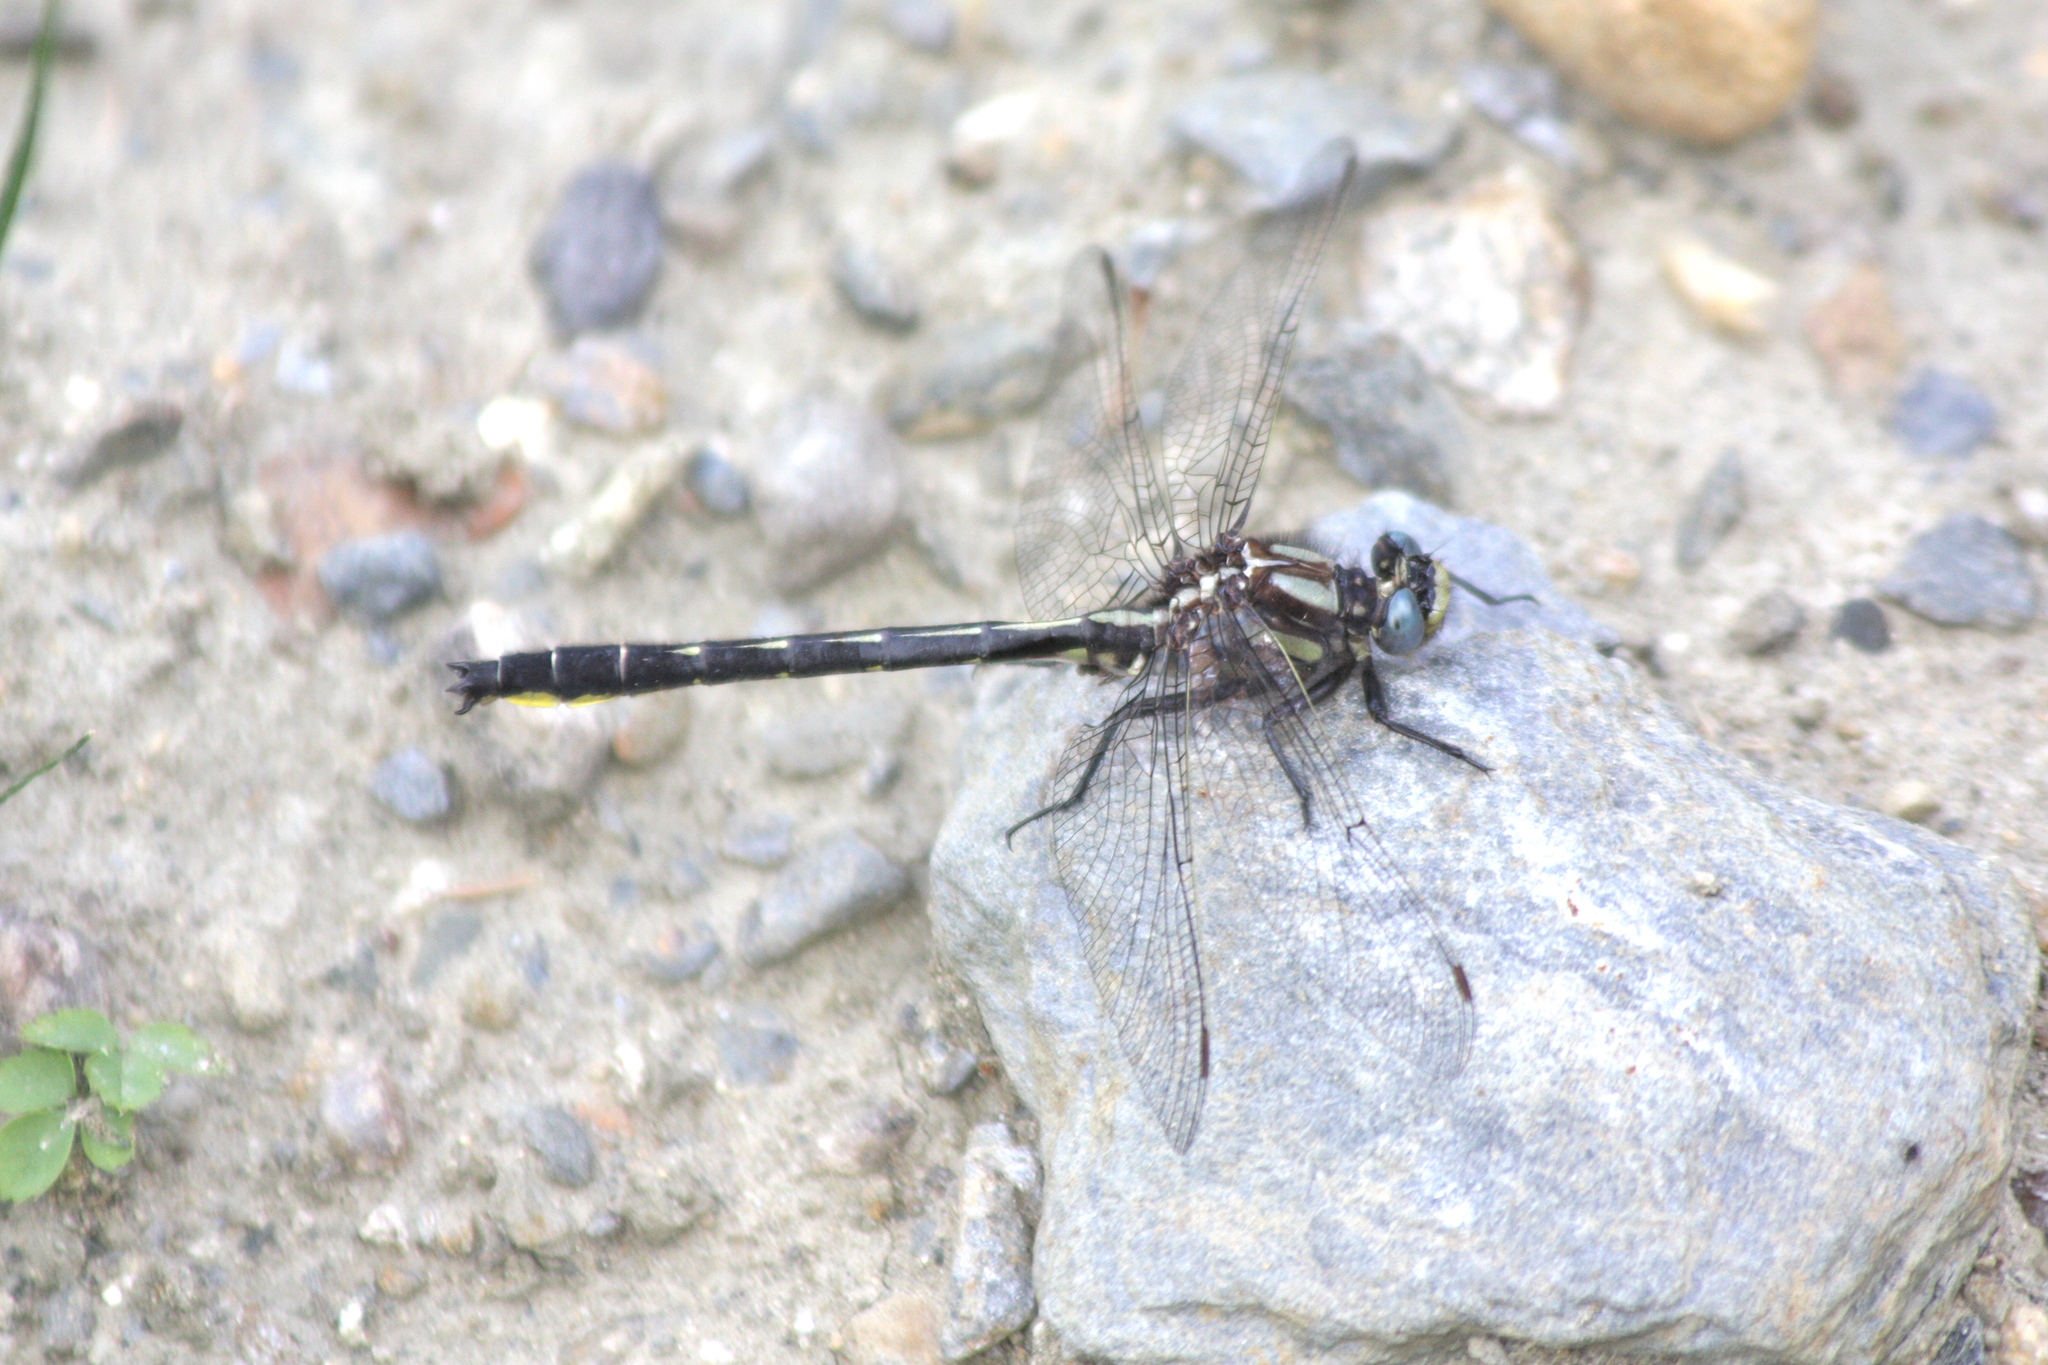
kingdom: Animalia
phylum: Arthropoda
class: Insecta
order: Odonata
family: Gomphidae
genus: Phanogomphus
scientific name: Phanogomphus borealis
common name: Beaverpond clubtail
